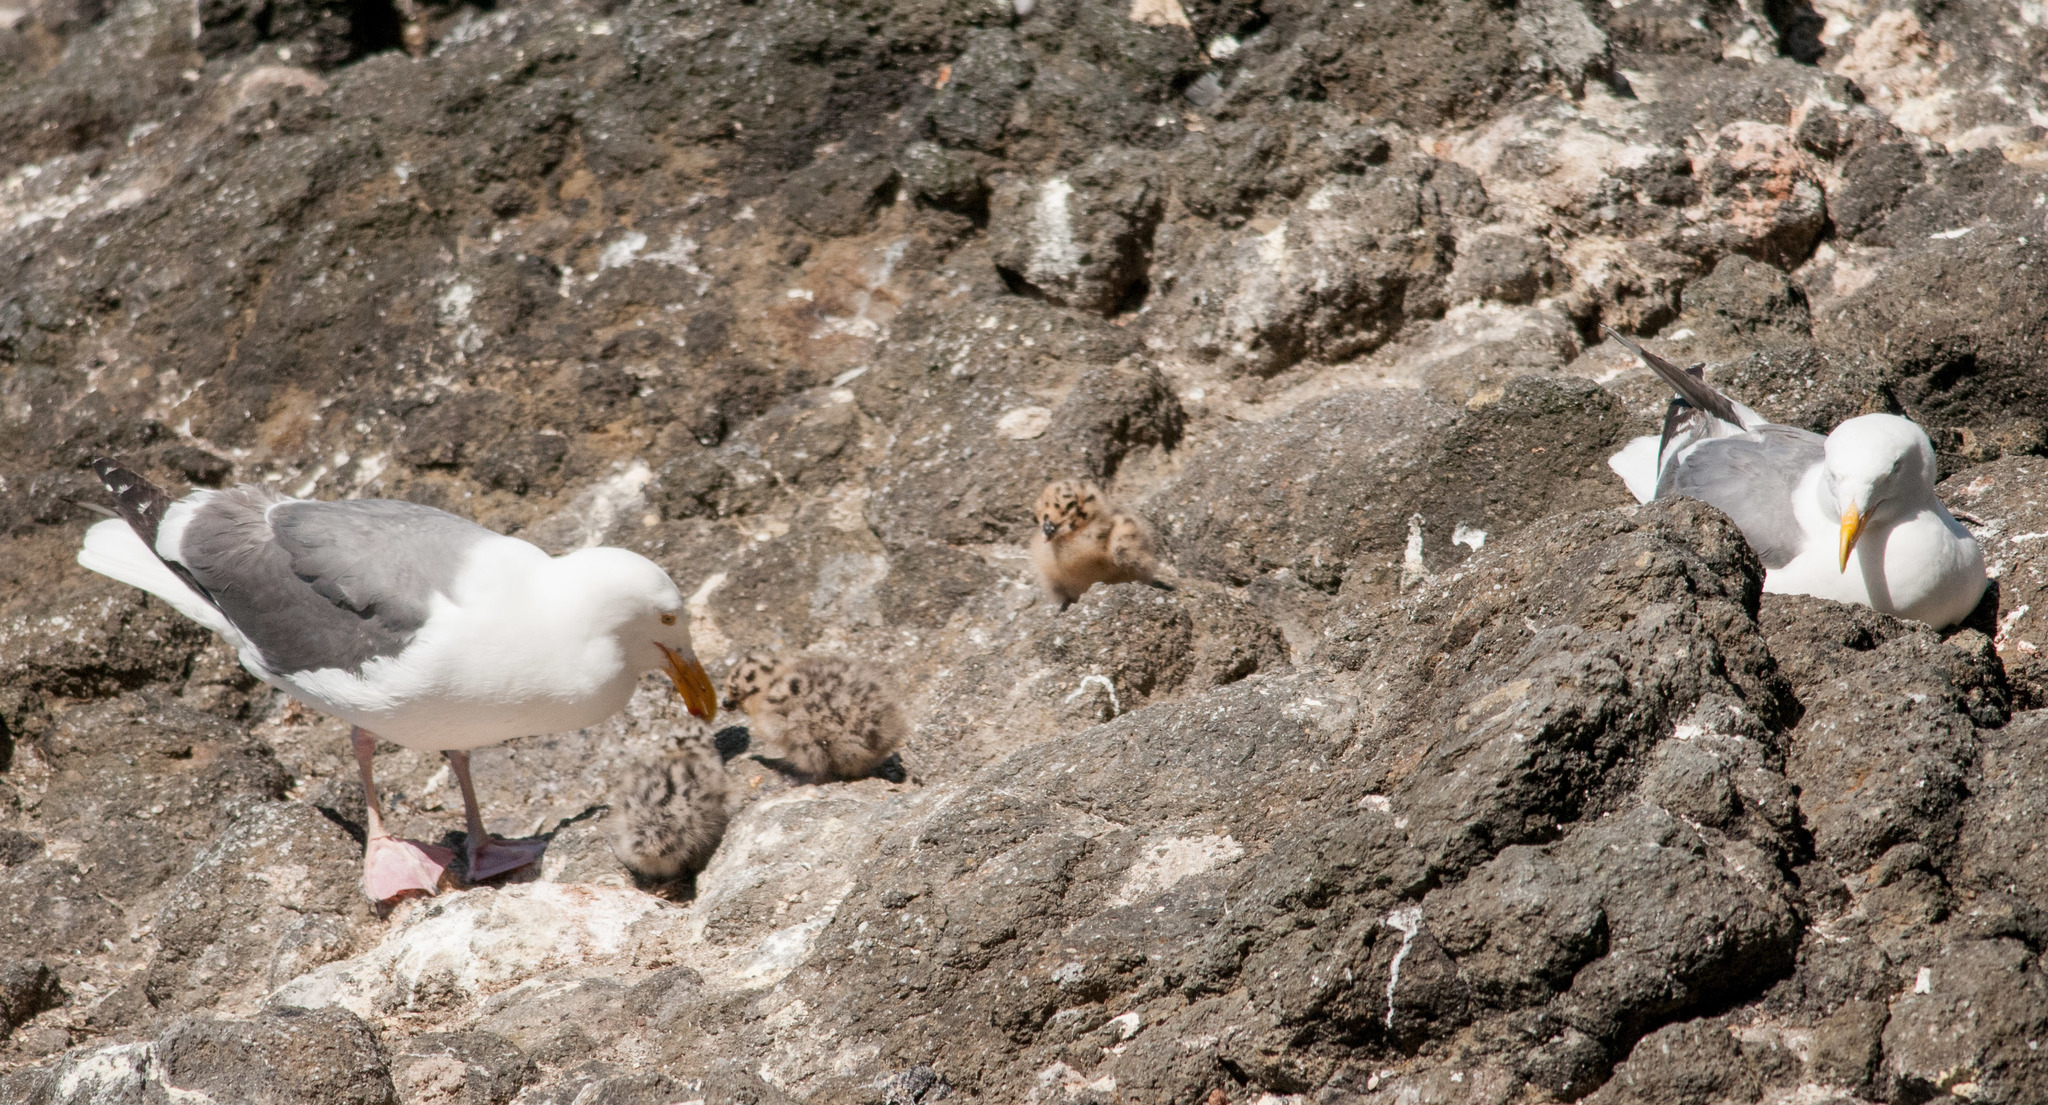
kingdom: Animalia
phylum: Chordata
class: Aves
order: Charadriiformes
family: Laridae
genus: Larus
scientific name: Larus occidentalis
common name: Western gull
